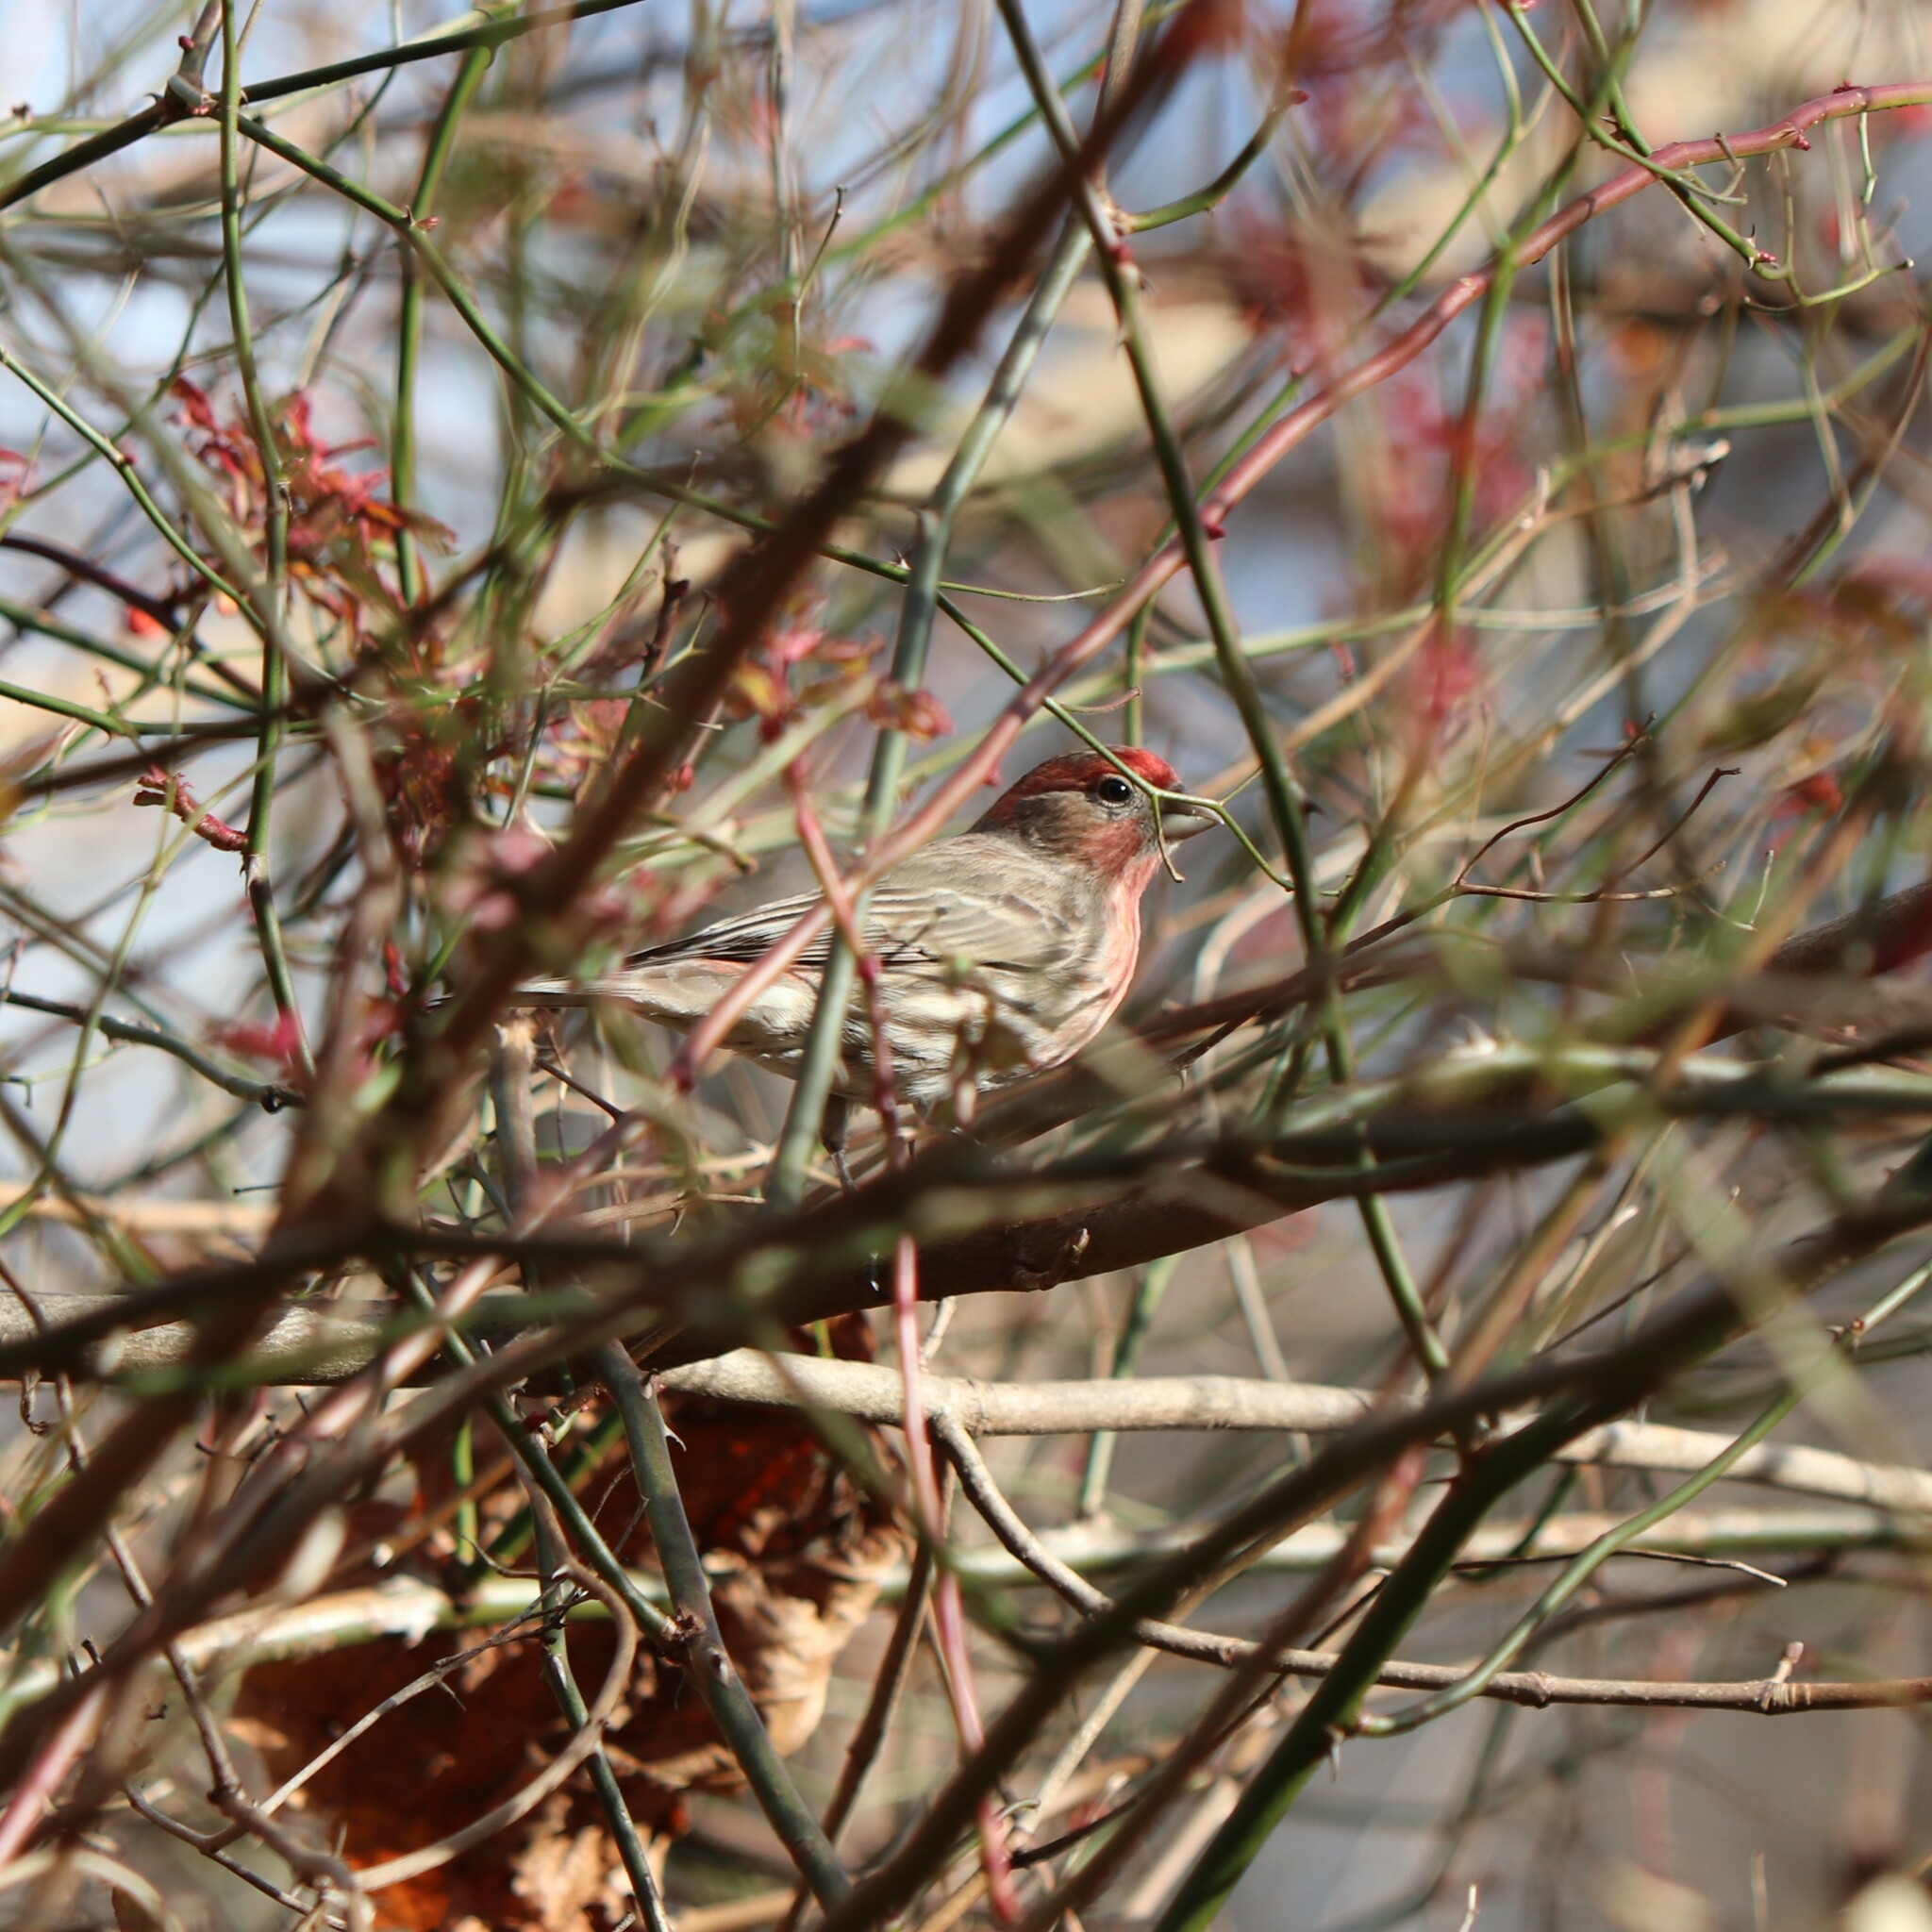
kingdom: Animalia
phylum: Chordata
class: Aves
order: Passeriformes
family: Fringillidae
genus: Haemorhous
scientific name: Haemorhous mexicanus
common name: House finch
